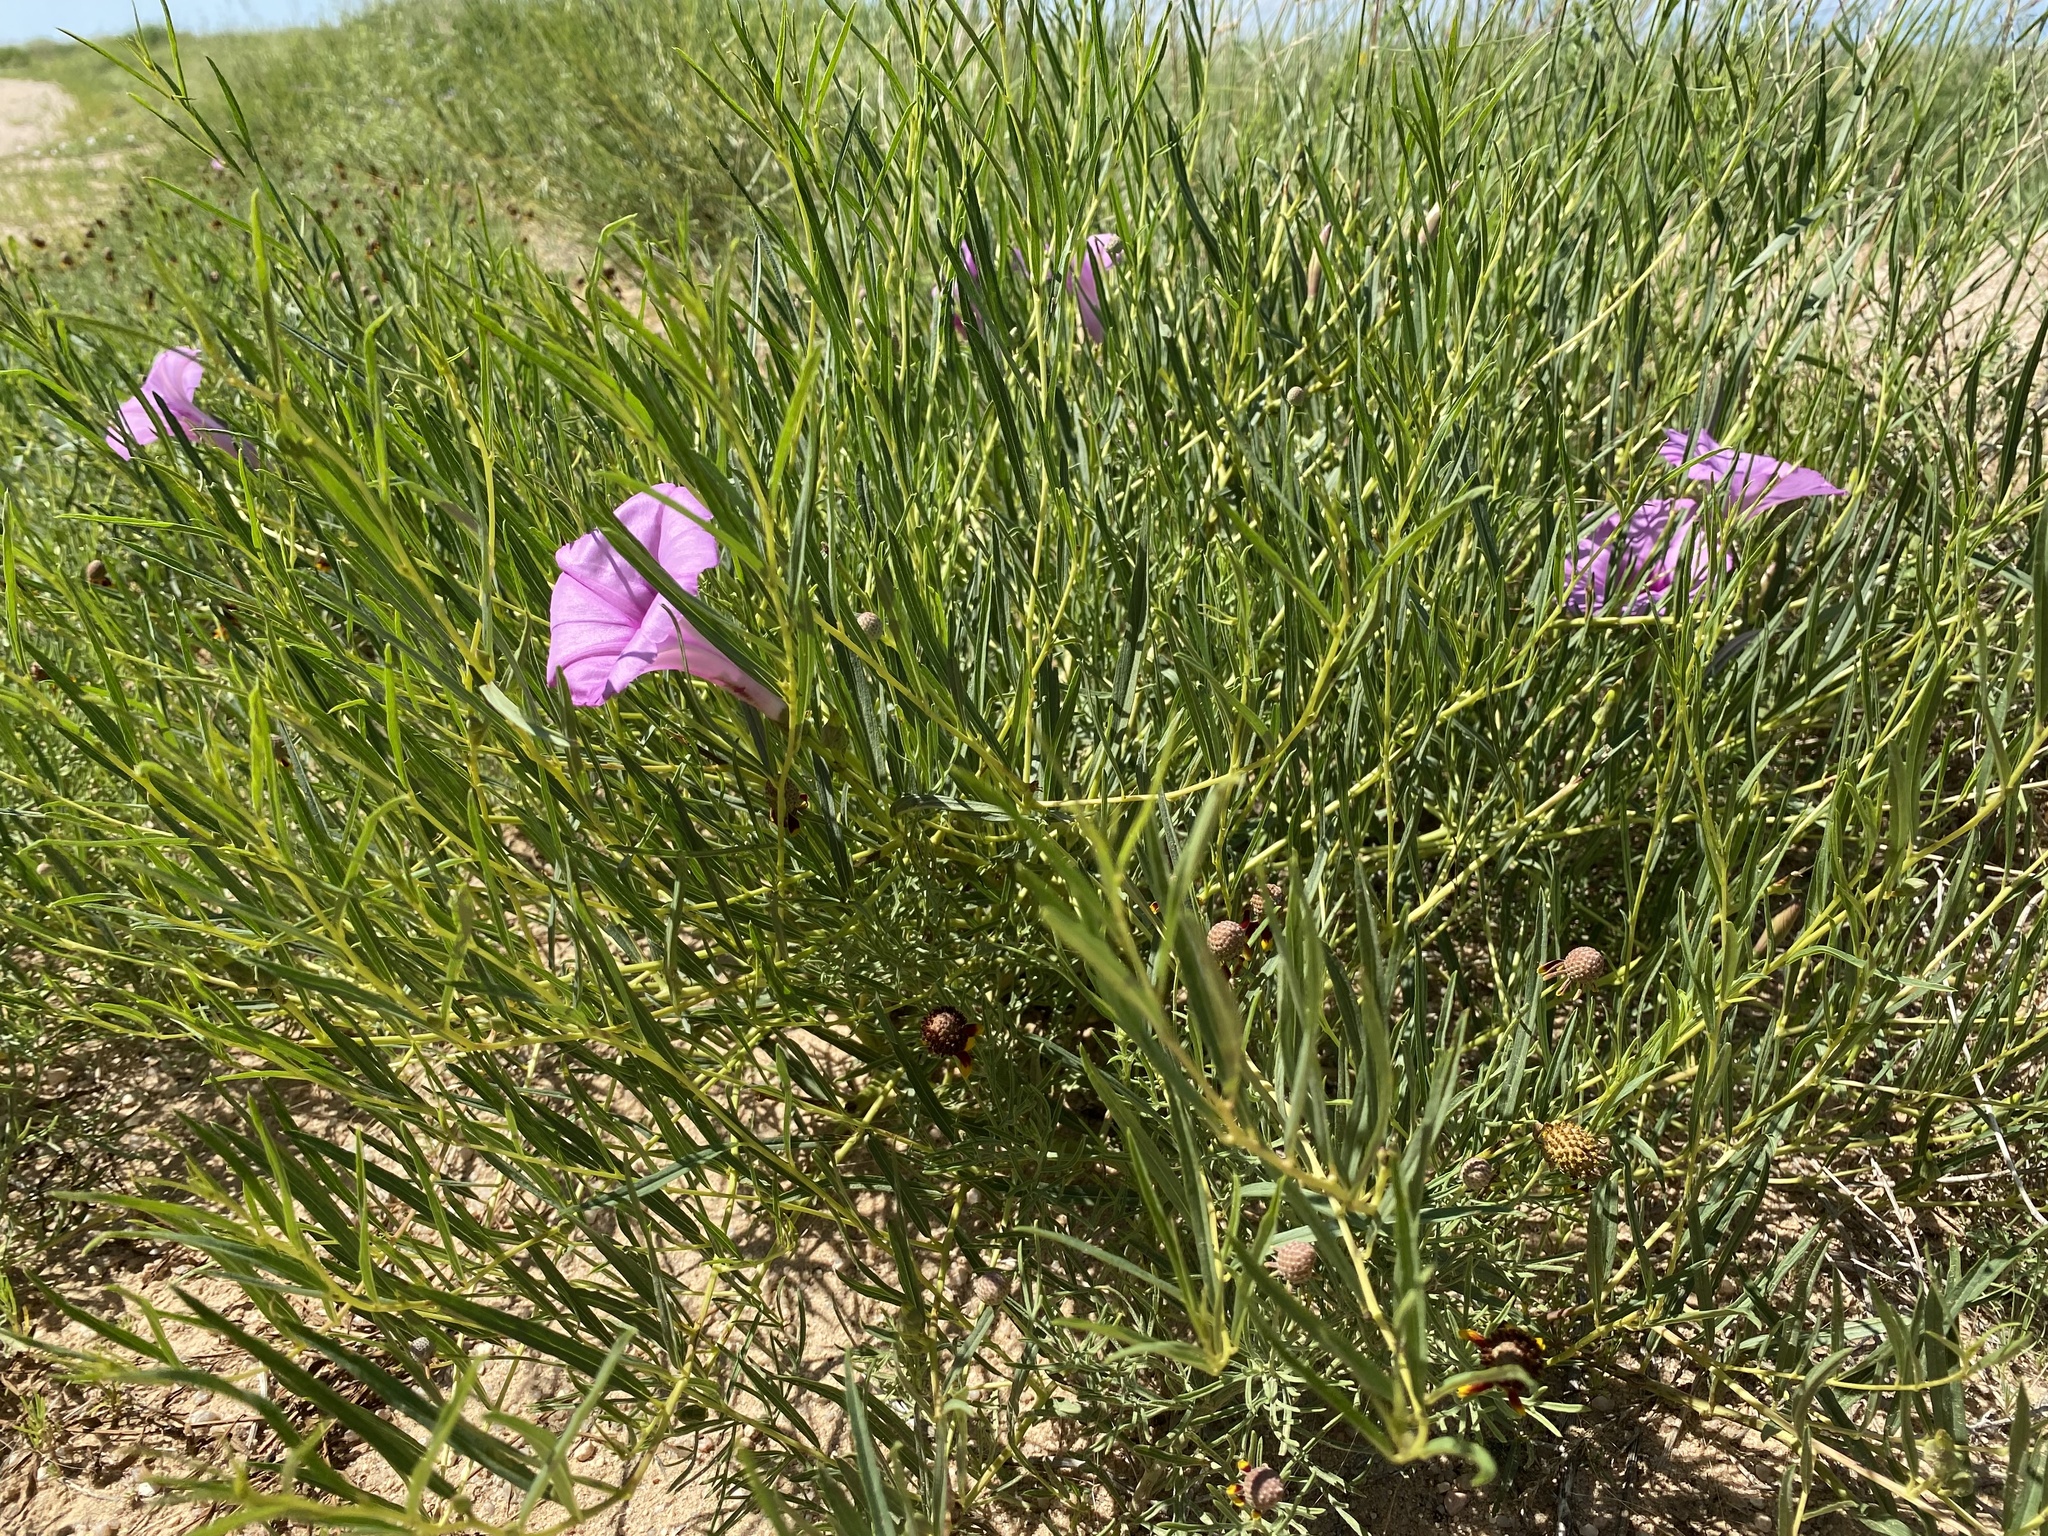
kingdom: Plantae
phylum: Tracheophyta
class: Magnoliopsida
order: Solanales
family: Convolvulaceae
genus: Ipomoea
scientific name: Ipomoea leptophylla
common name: Bush moonflower
